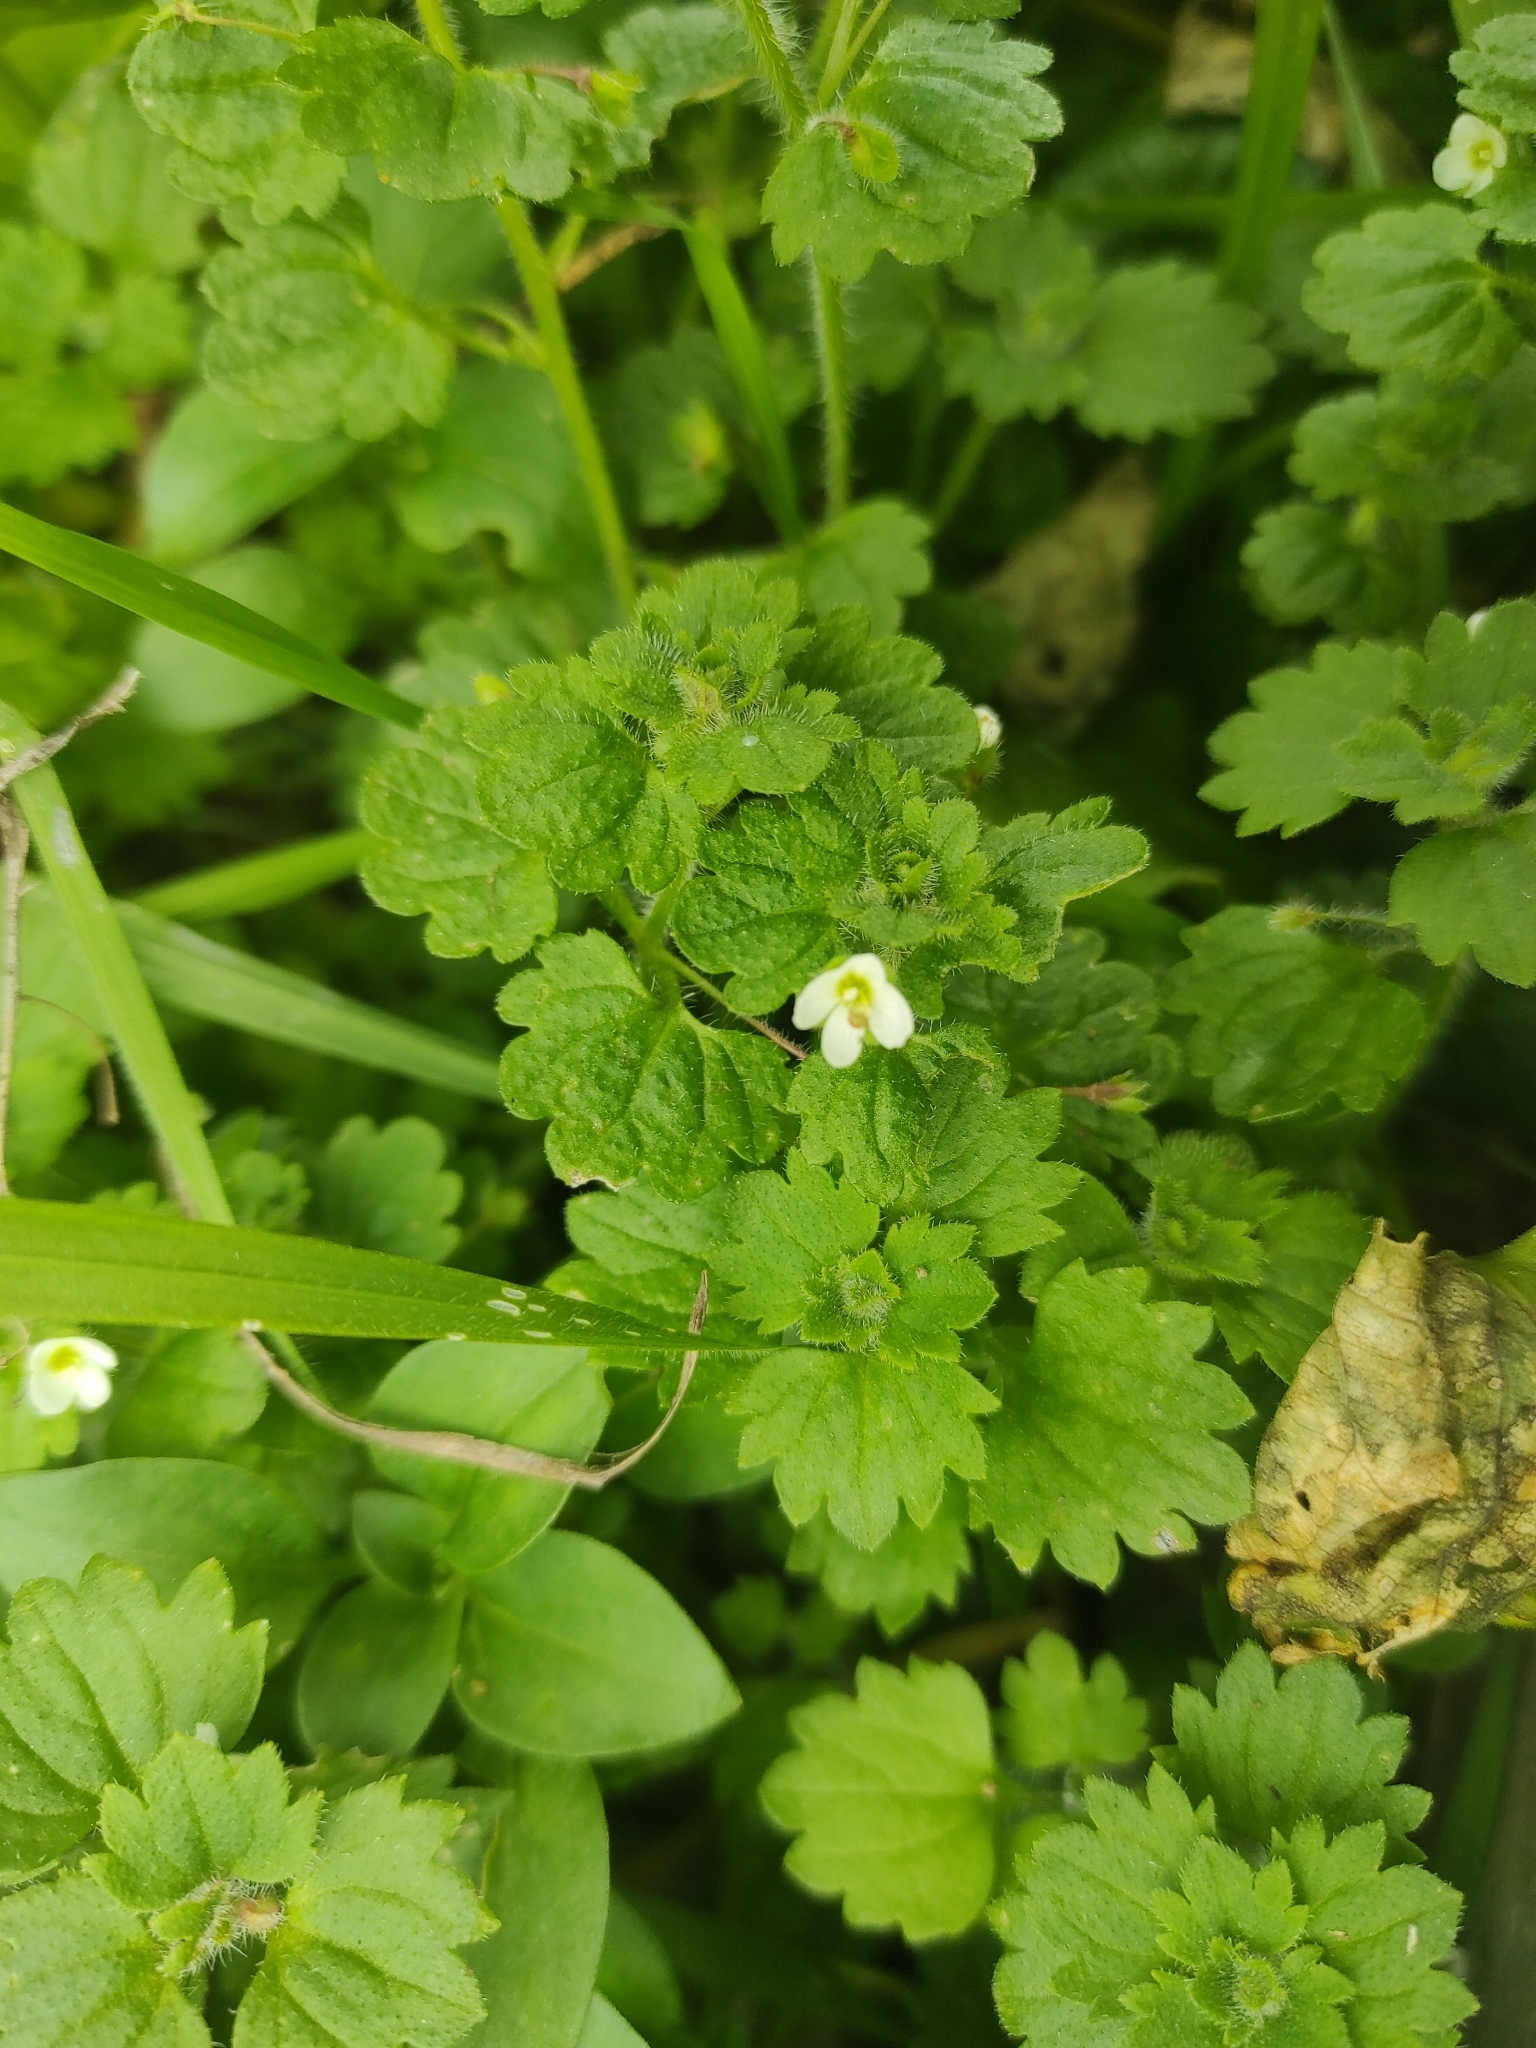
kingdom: Plantae
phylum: Tracheophyta
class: Magnoliopsida
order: Lamiales
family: Plantaginaceae
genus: Veronica
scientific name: Veronica cymbalaria
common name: Pale speedwell
